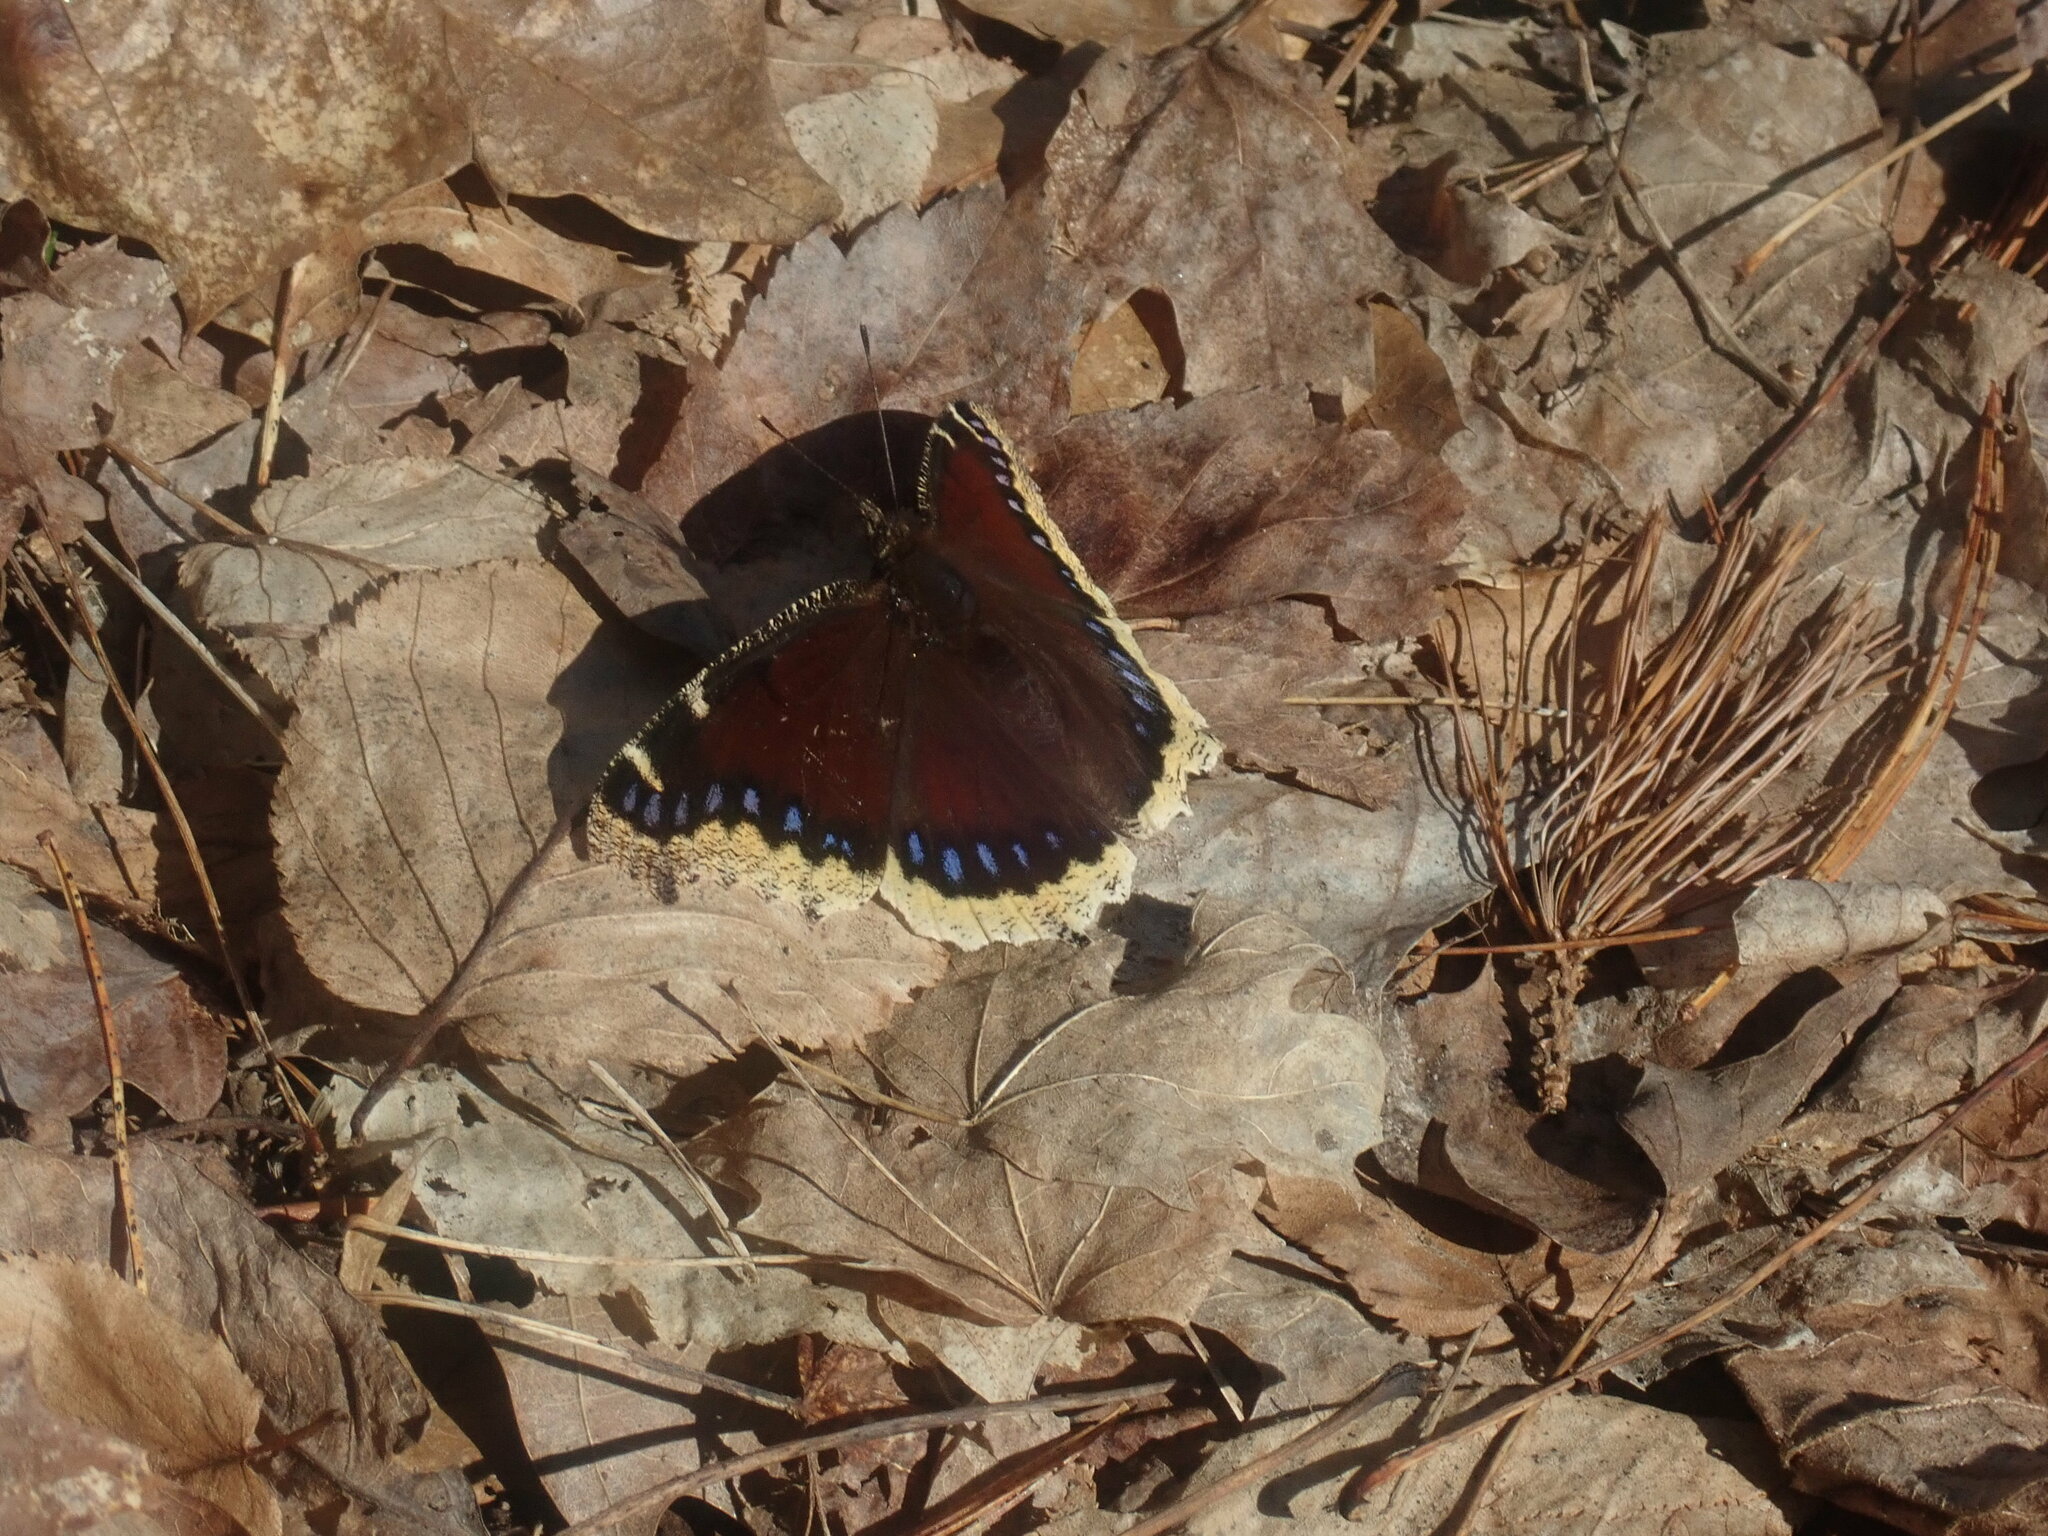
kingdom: Animalia
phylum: Arthropoda
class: Insecta
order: Lepidoptera
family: Nymphalidae
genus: Nymphalis
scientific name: Nymphalis antiopa
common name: Camberwell beauty
